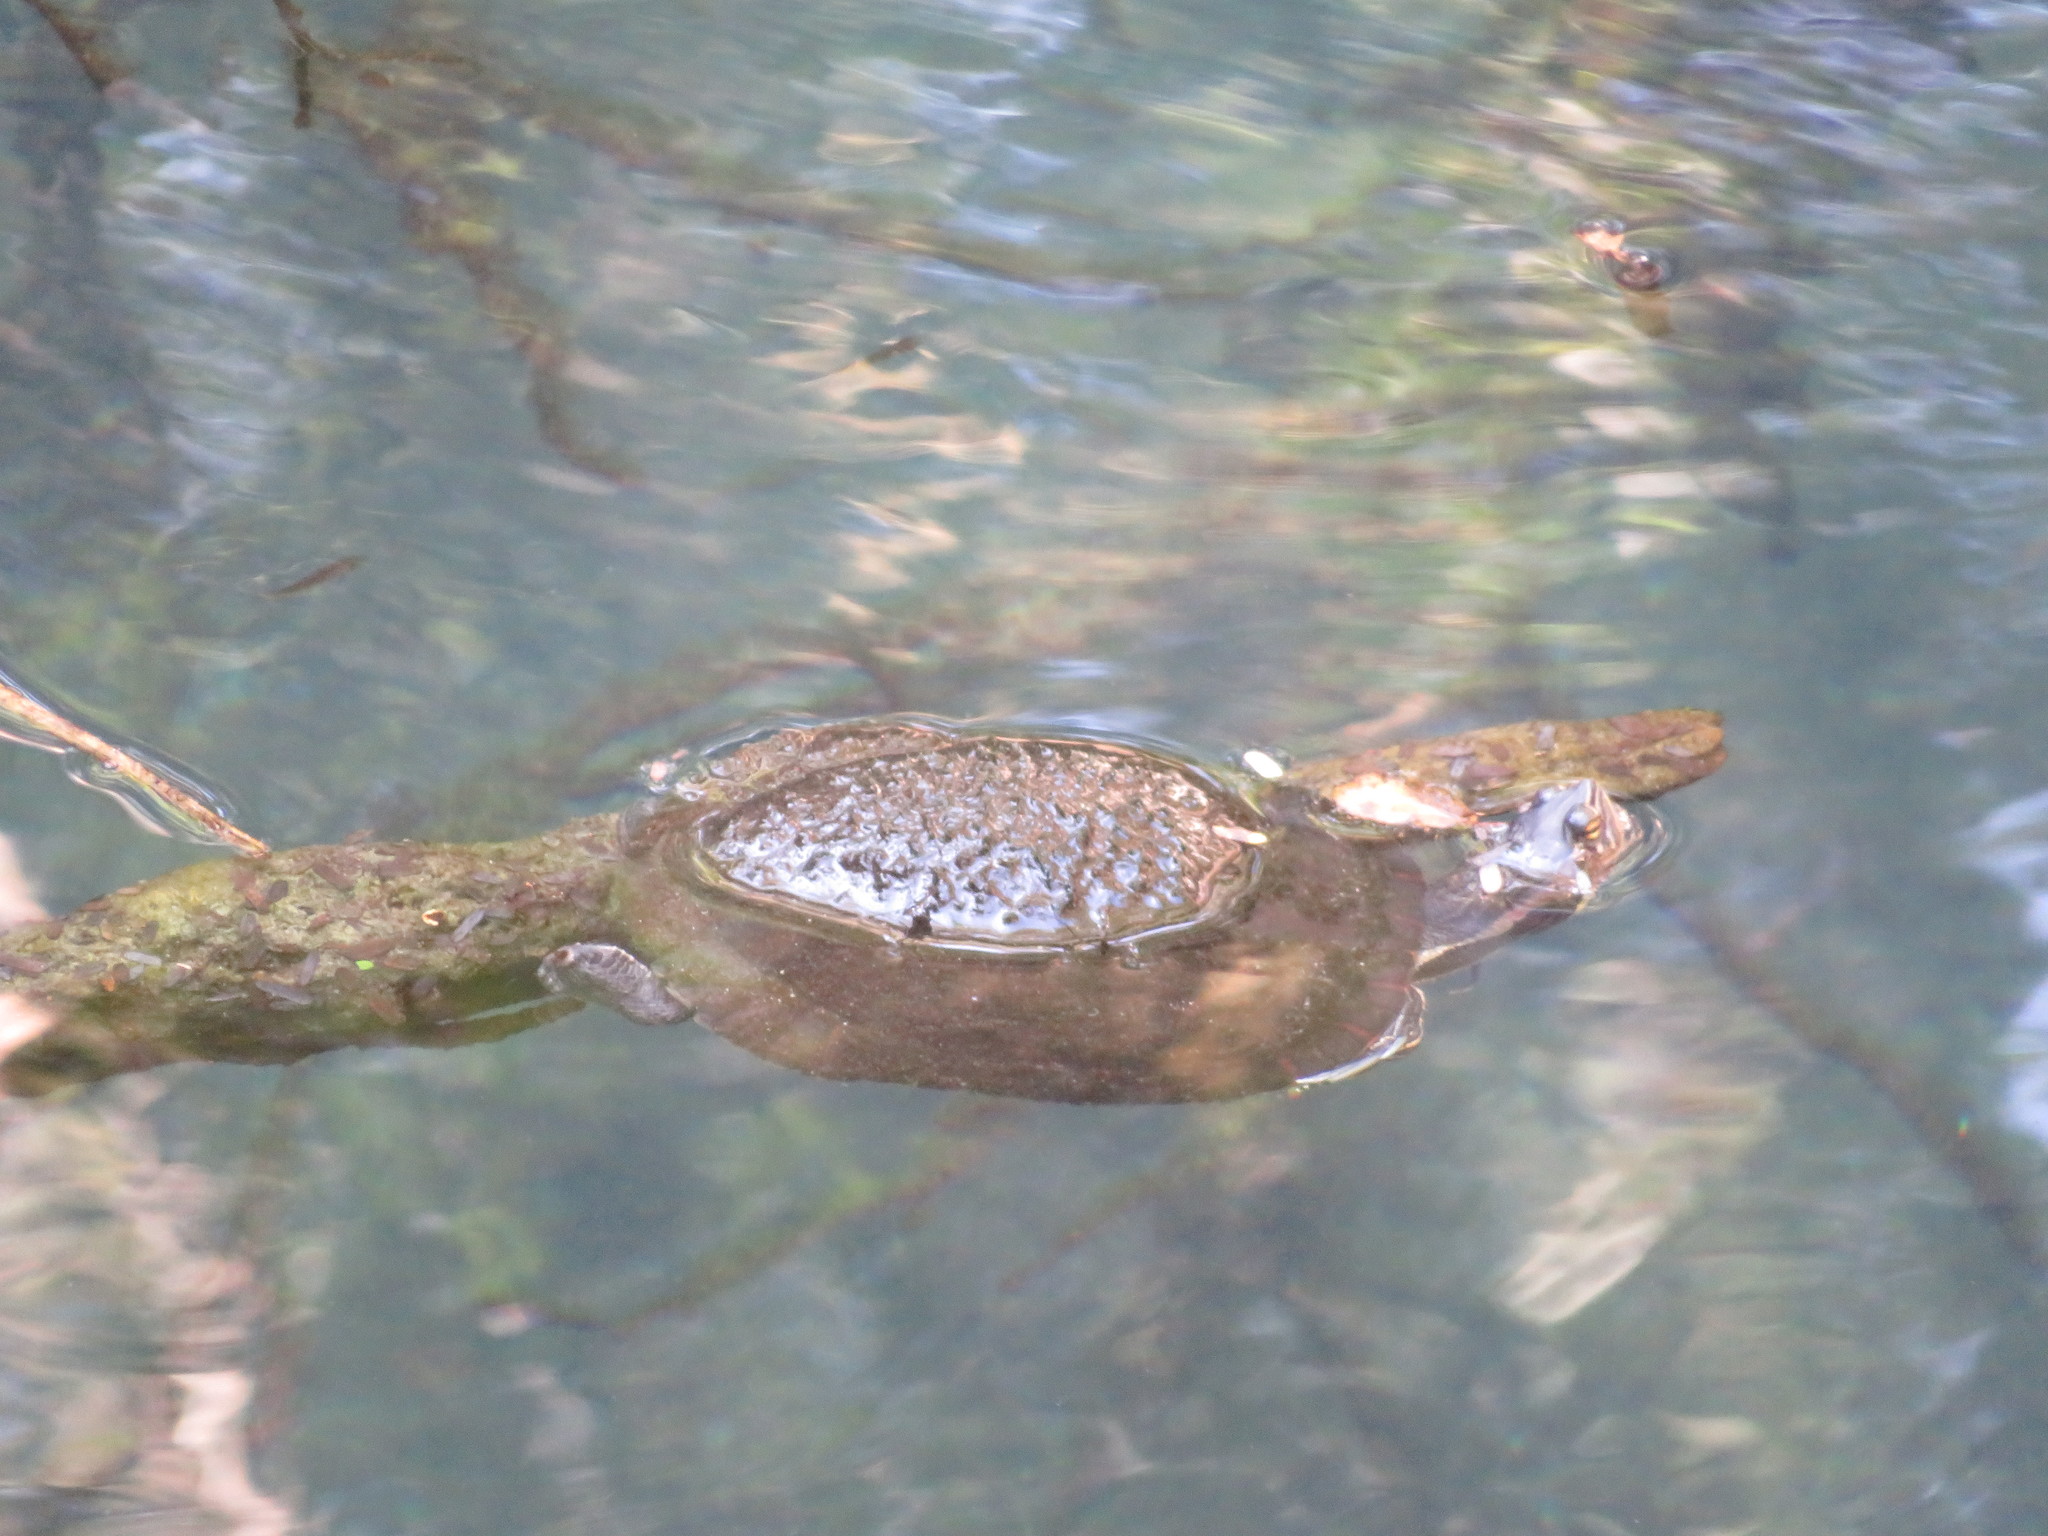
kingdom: Animalia
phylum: Chordata
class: Testudines
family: Emydidae
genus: Trachemys
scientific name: Trachemys decussata
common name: North antillean slider
